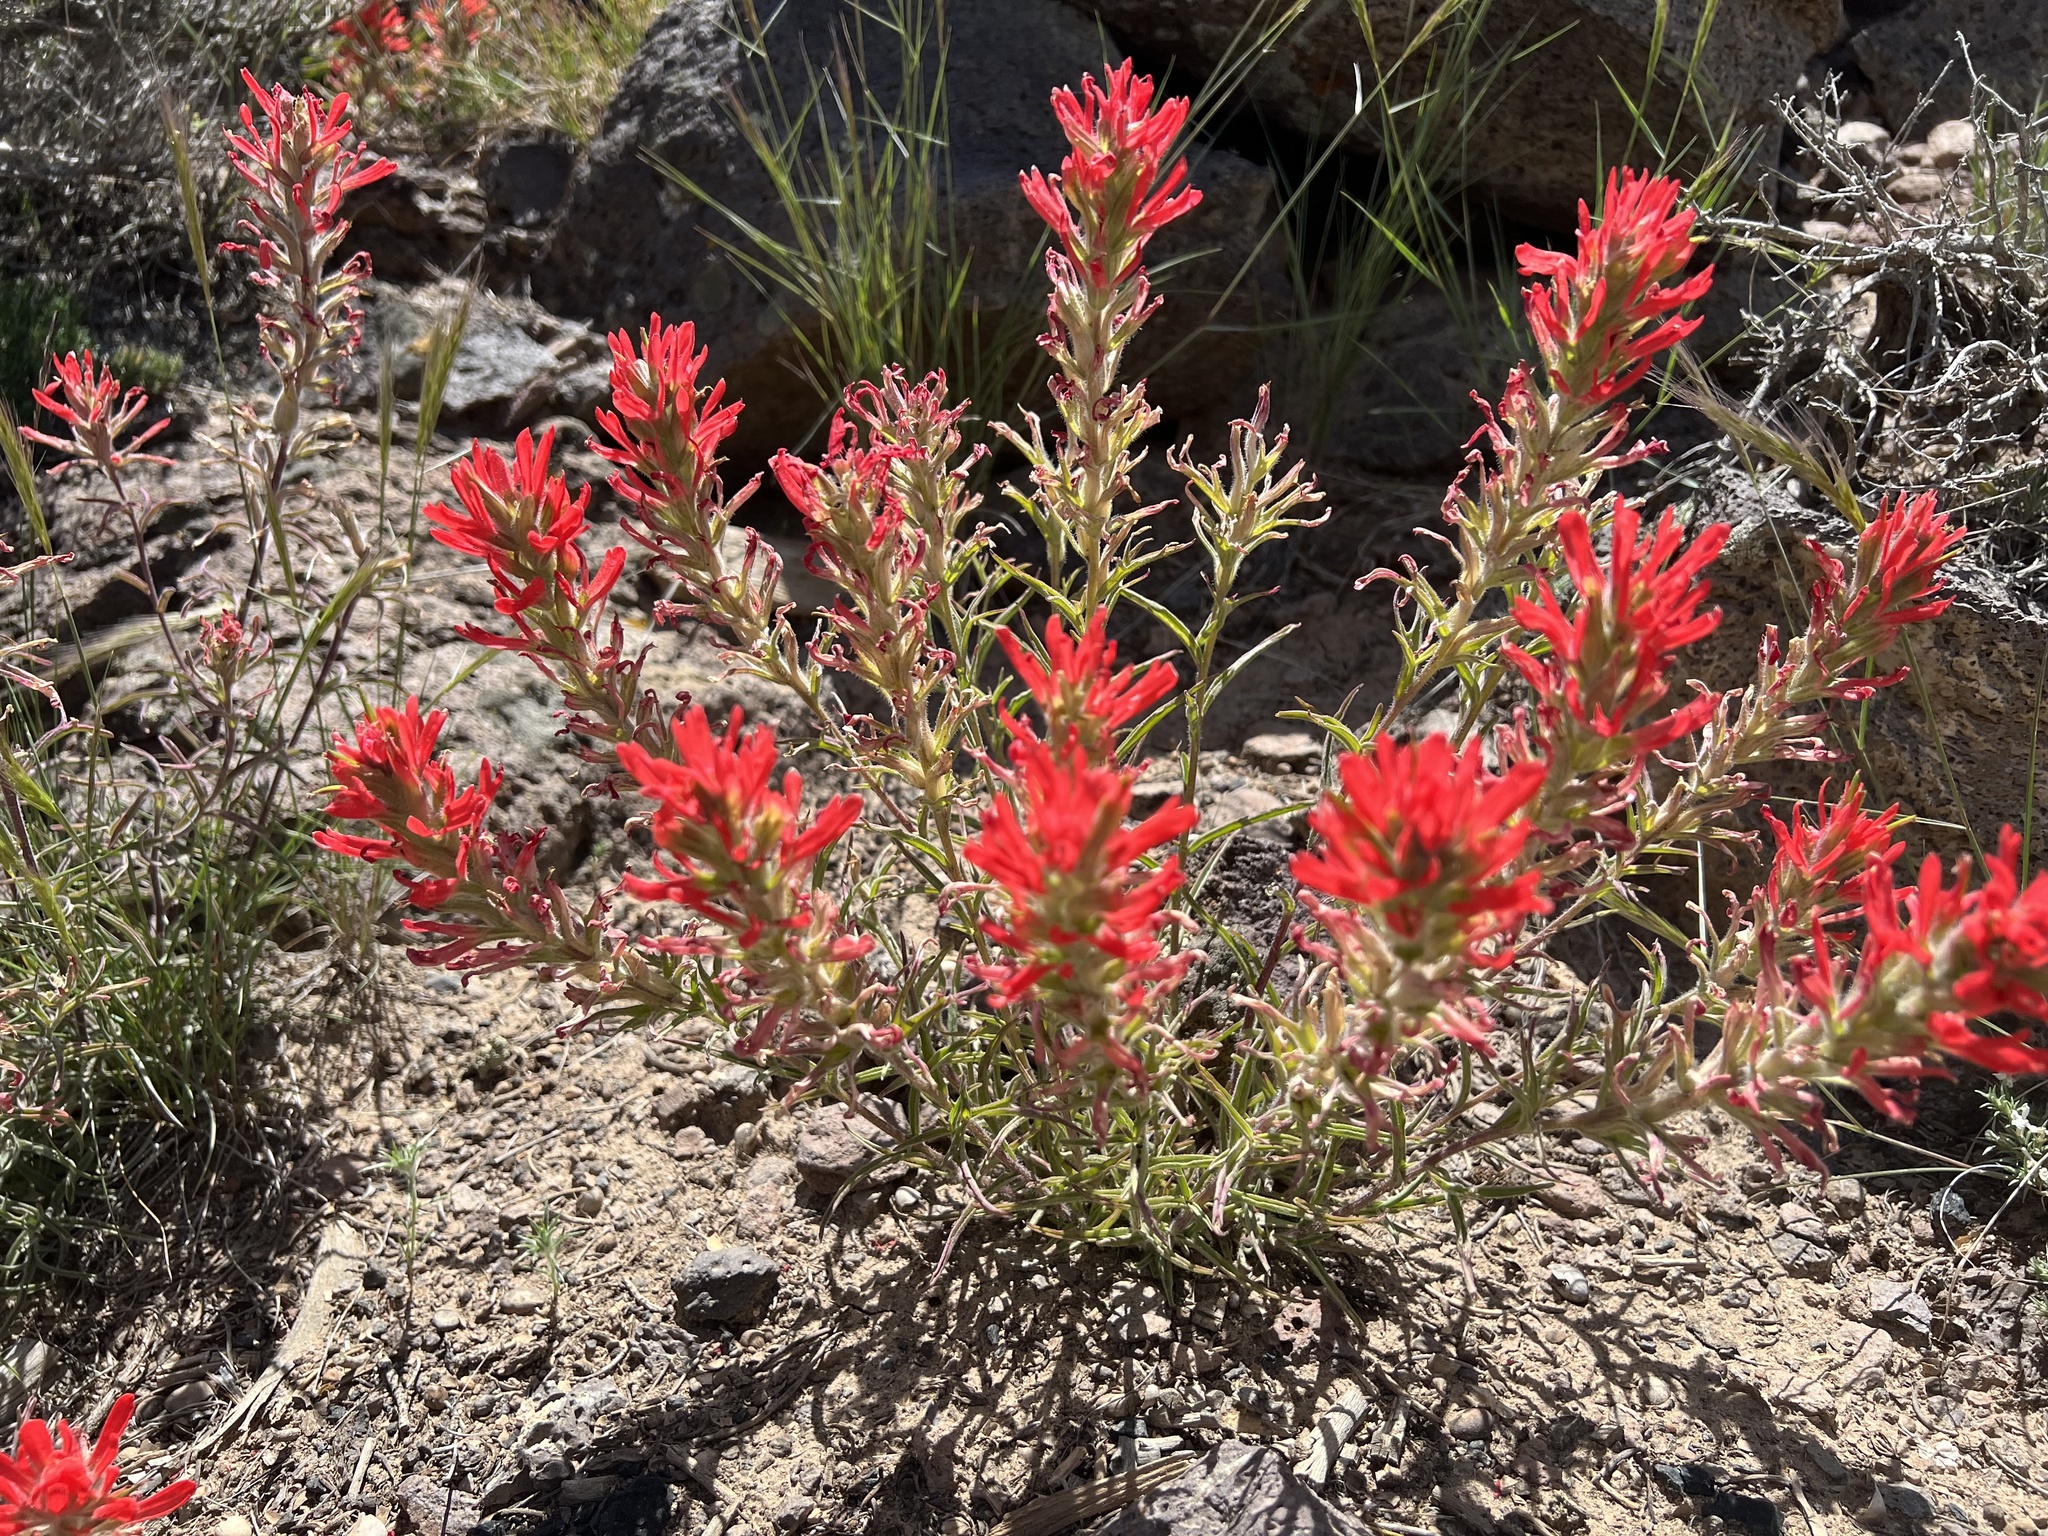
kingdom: Plantae
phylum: Tracheophyta
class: Magnoliopsida
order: Lamiales
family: Orobanchaceae
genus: Castilleja
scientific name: Castilleja chromosa
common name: Desert paintbrush
